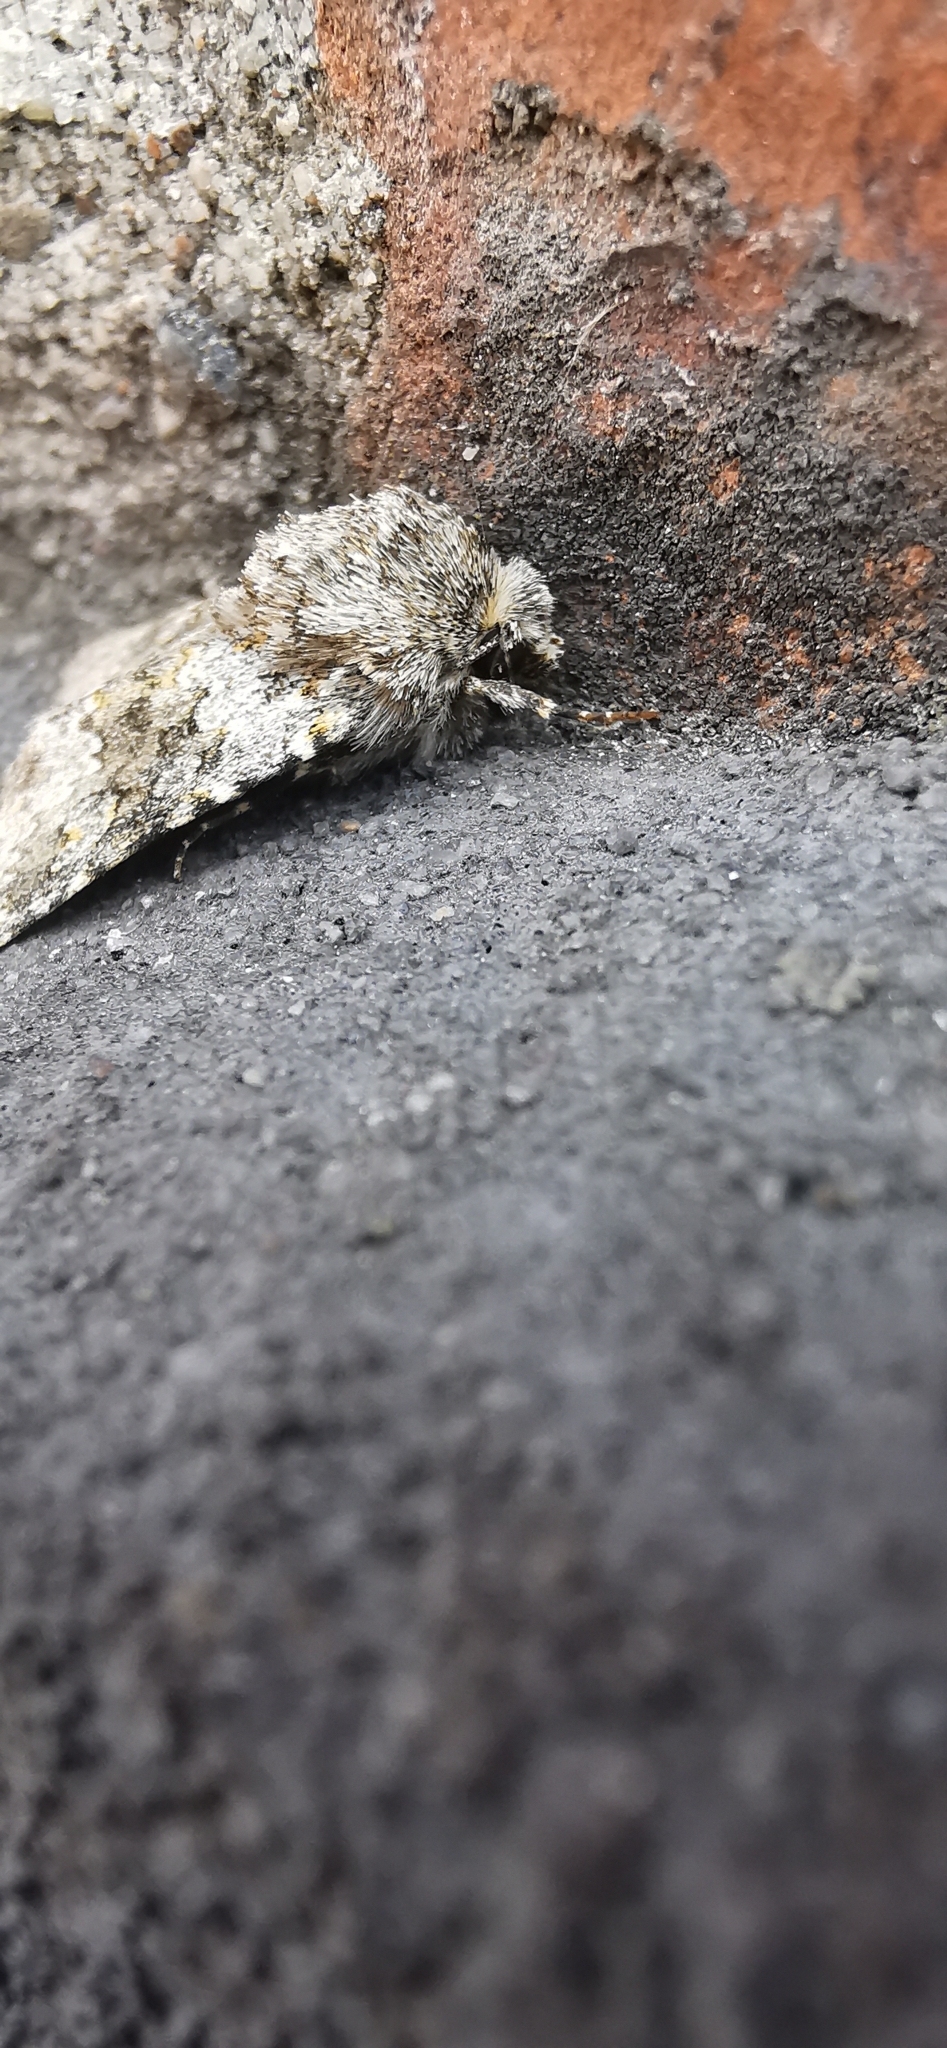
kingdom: Animalia
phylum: Arthropoda
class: Insecta
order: Lepidoptera
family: Noctuidae
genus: Hecatera
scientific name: Hecatera dysodea
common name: Small ranunculus
